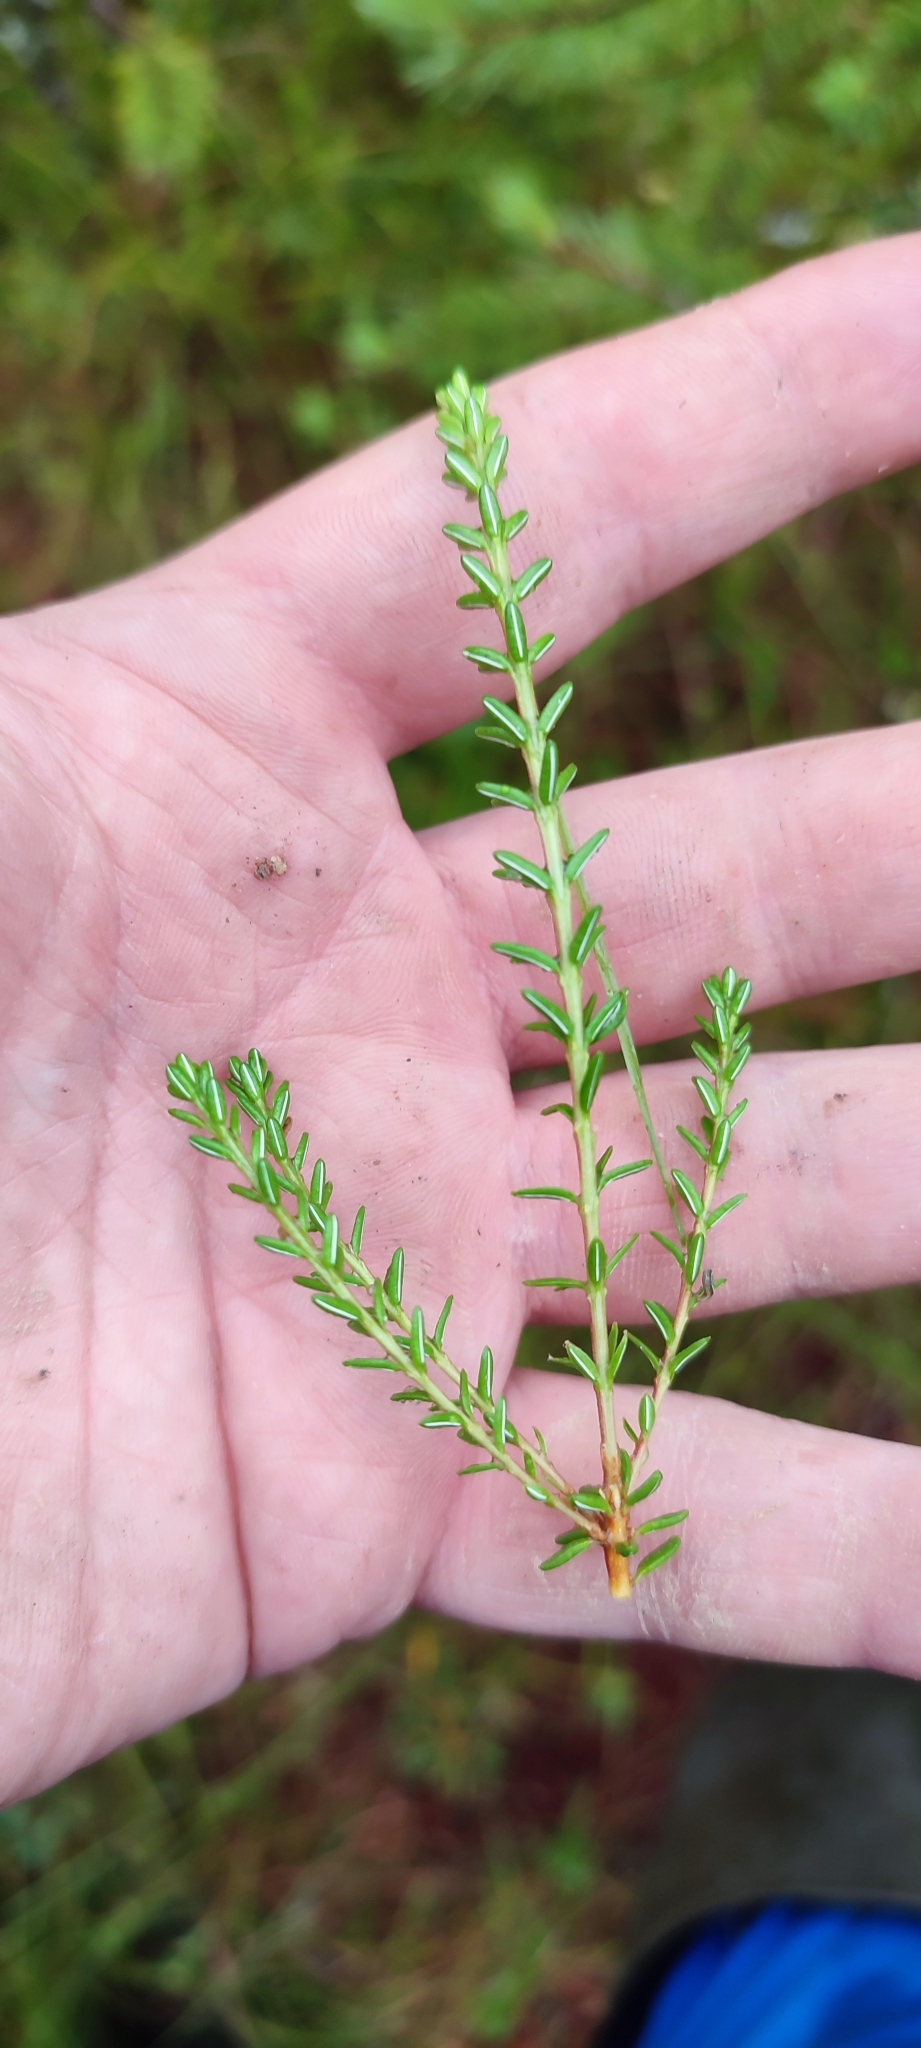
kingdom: Plantae
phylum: Tracheophyta
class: Magnoliopsida
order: Ericales
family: Ericaceae
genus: Empetrum
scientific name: Empetrum nigrum
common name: Black crowberry
